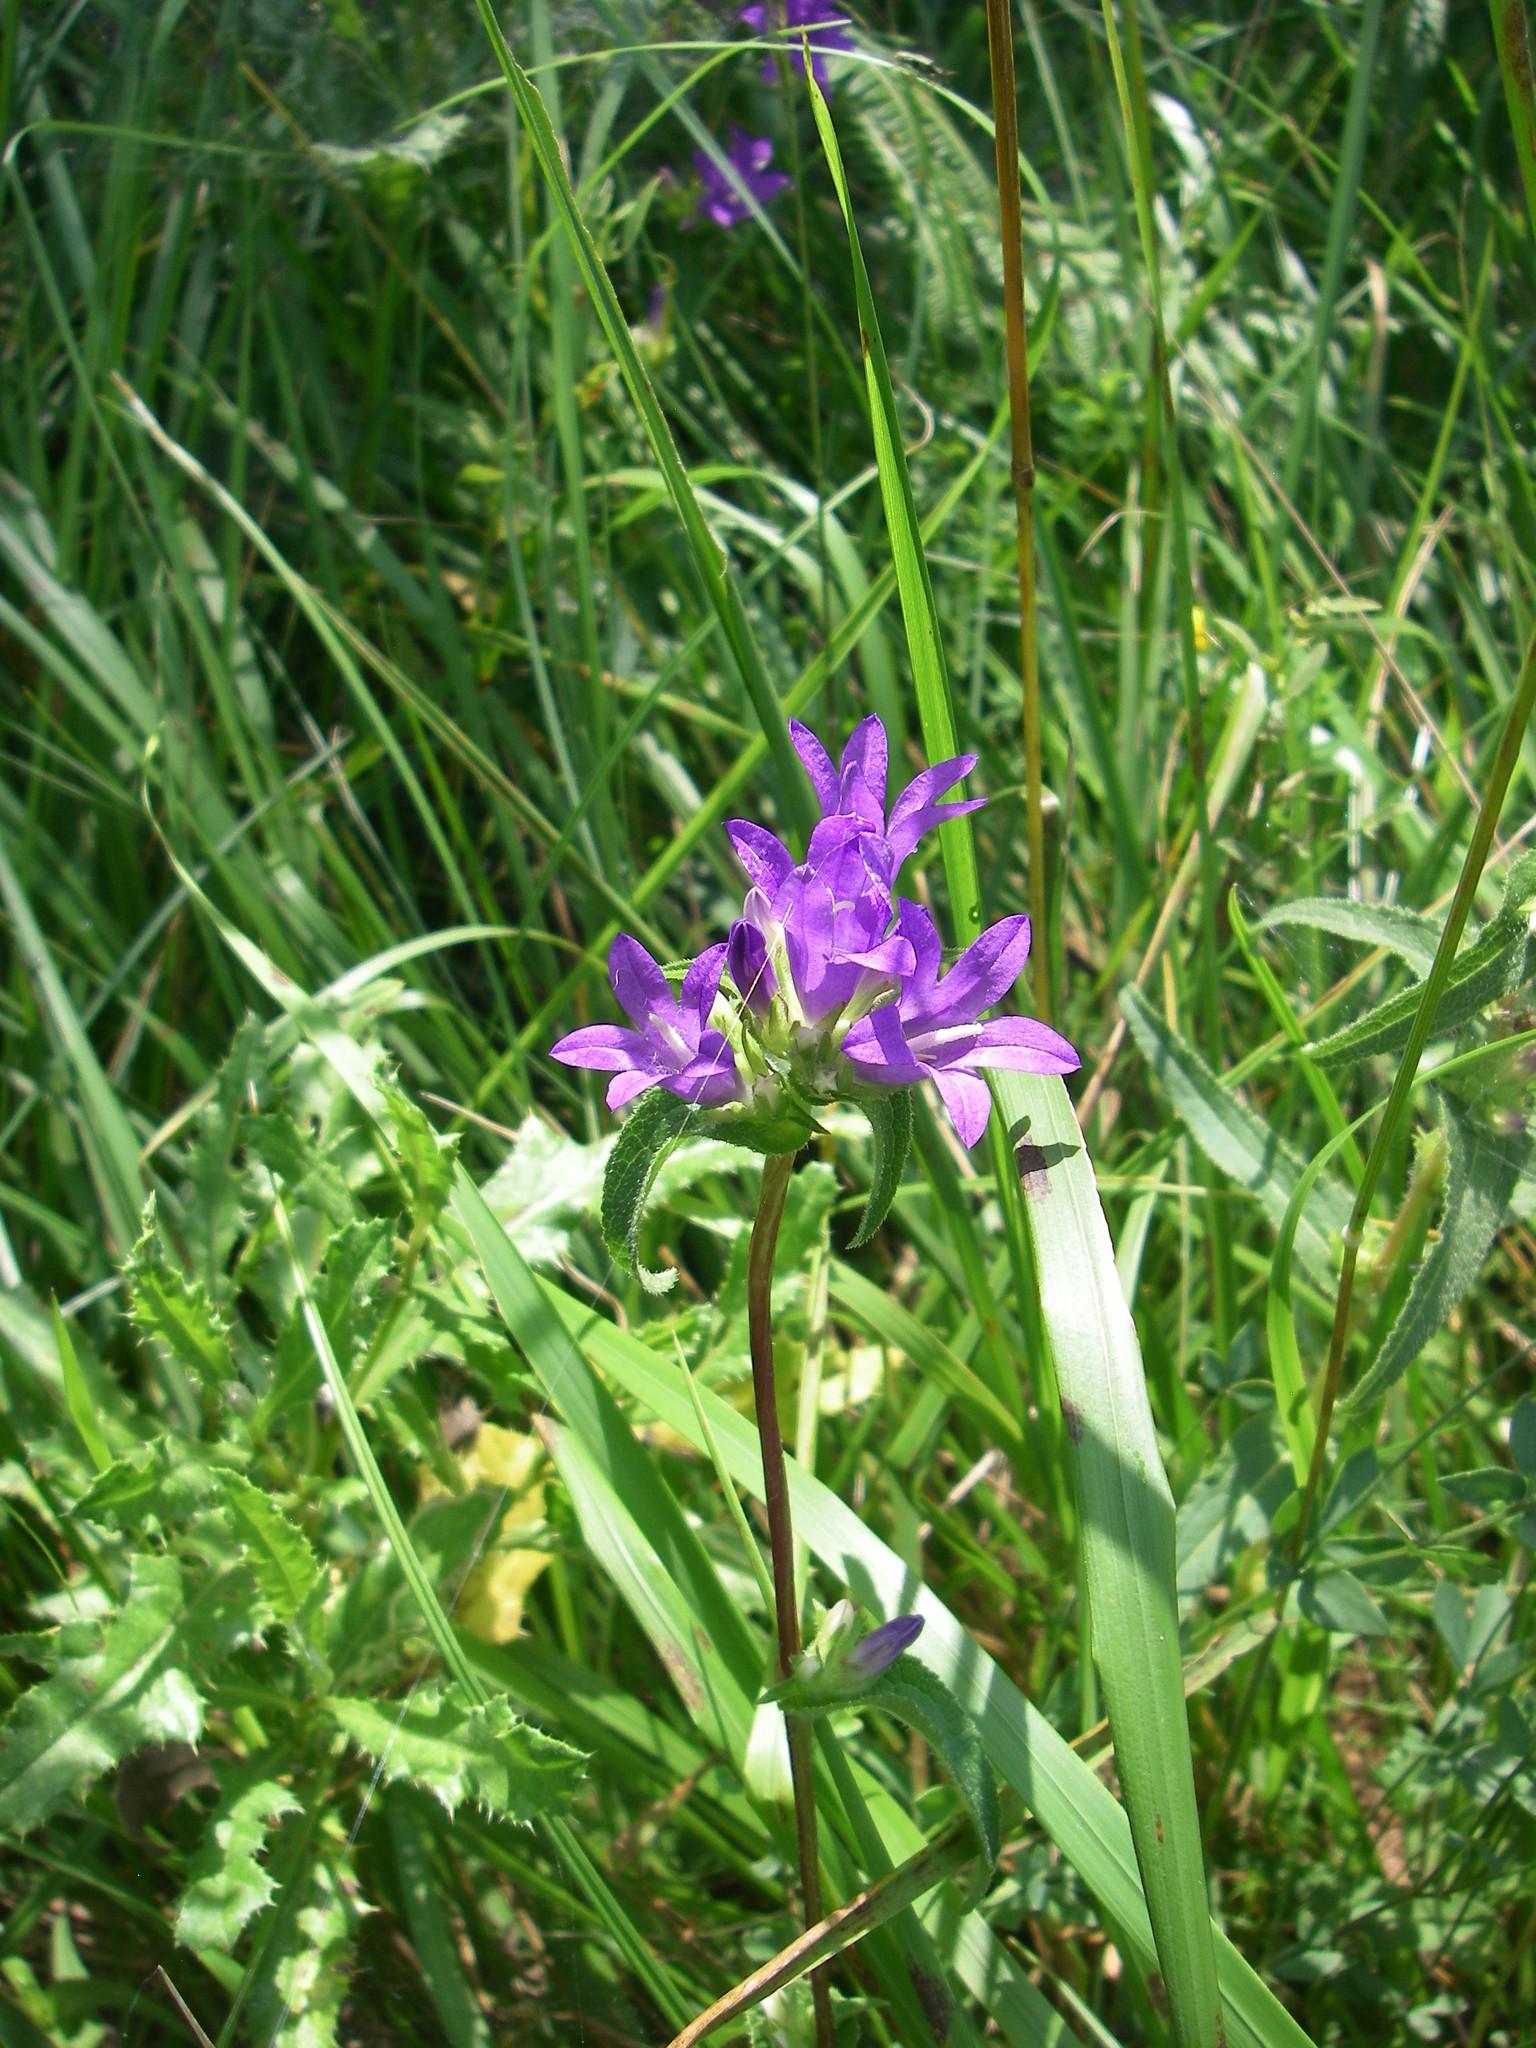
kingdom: Plantae
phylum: Tracheophyta
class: Magnoliopsida
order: Asterales
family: Campanulaceae
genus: Campanula
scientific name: Campanula glomerata
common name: Clustered bellflower
